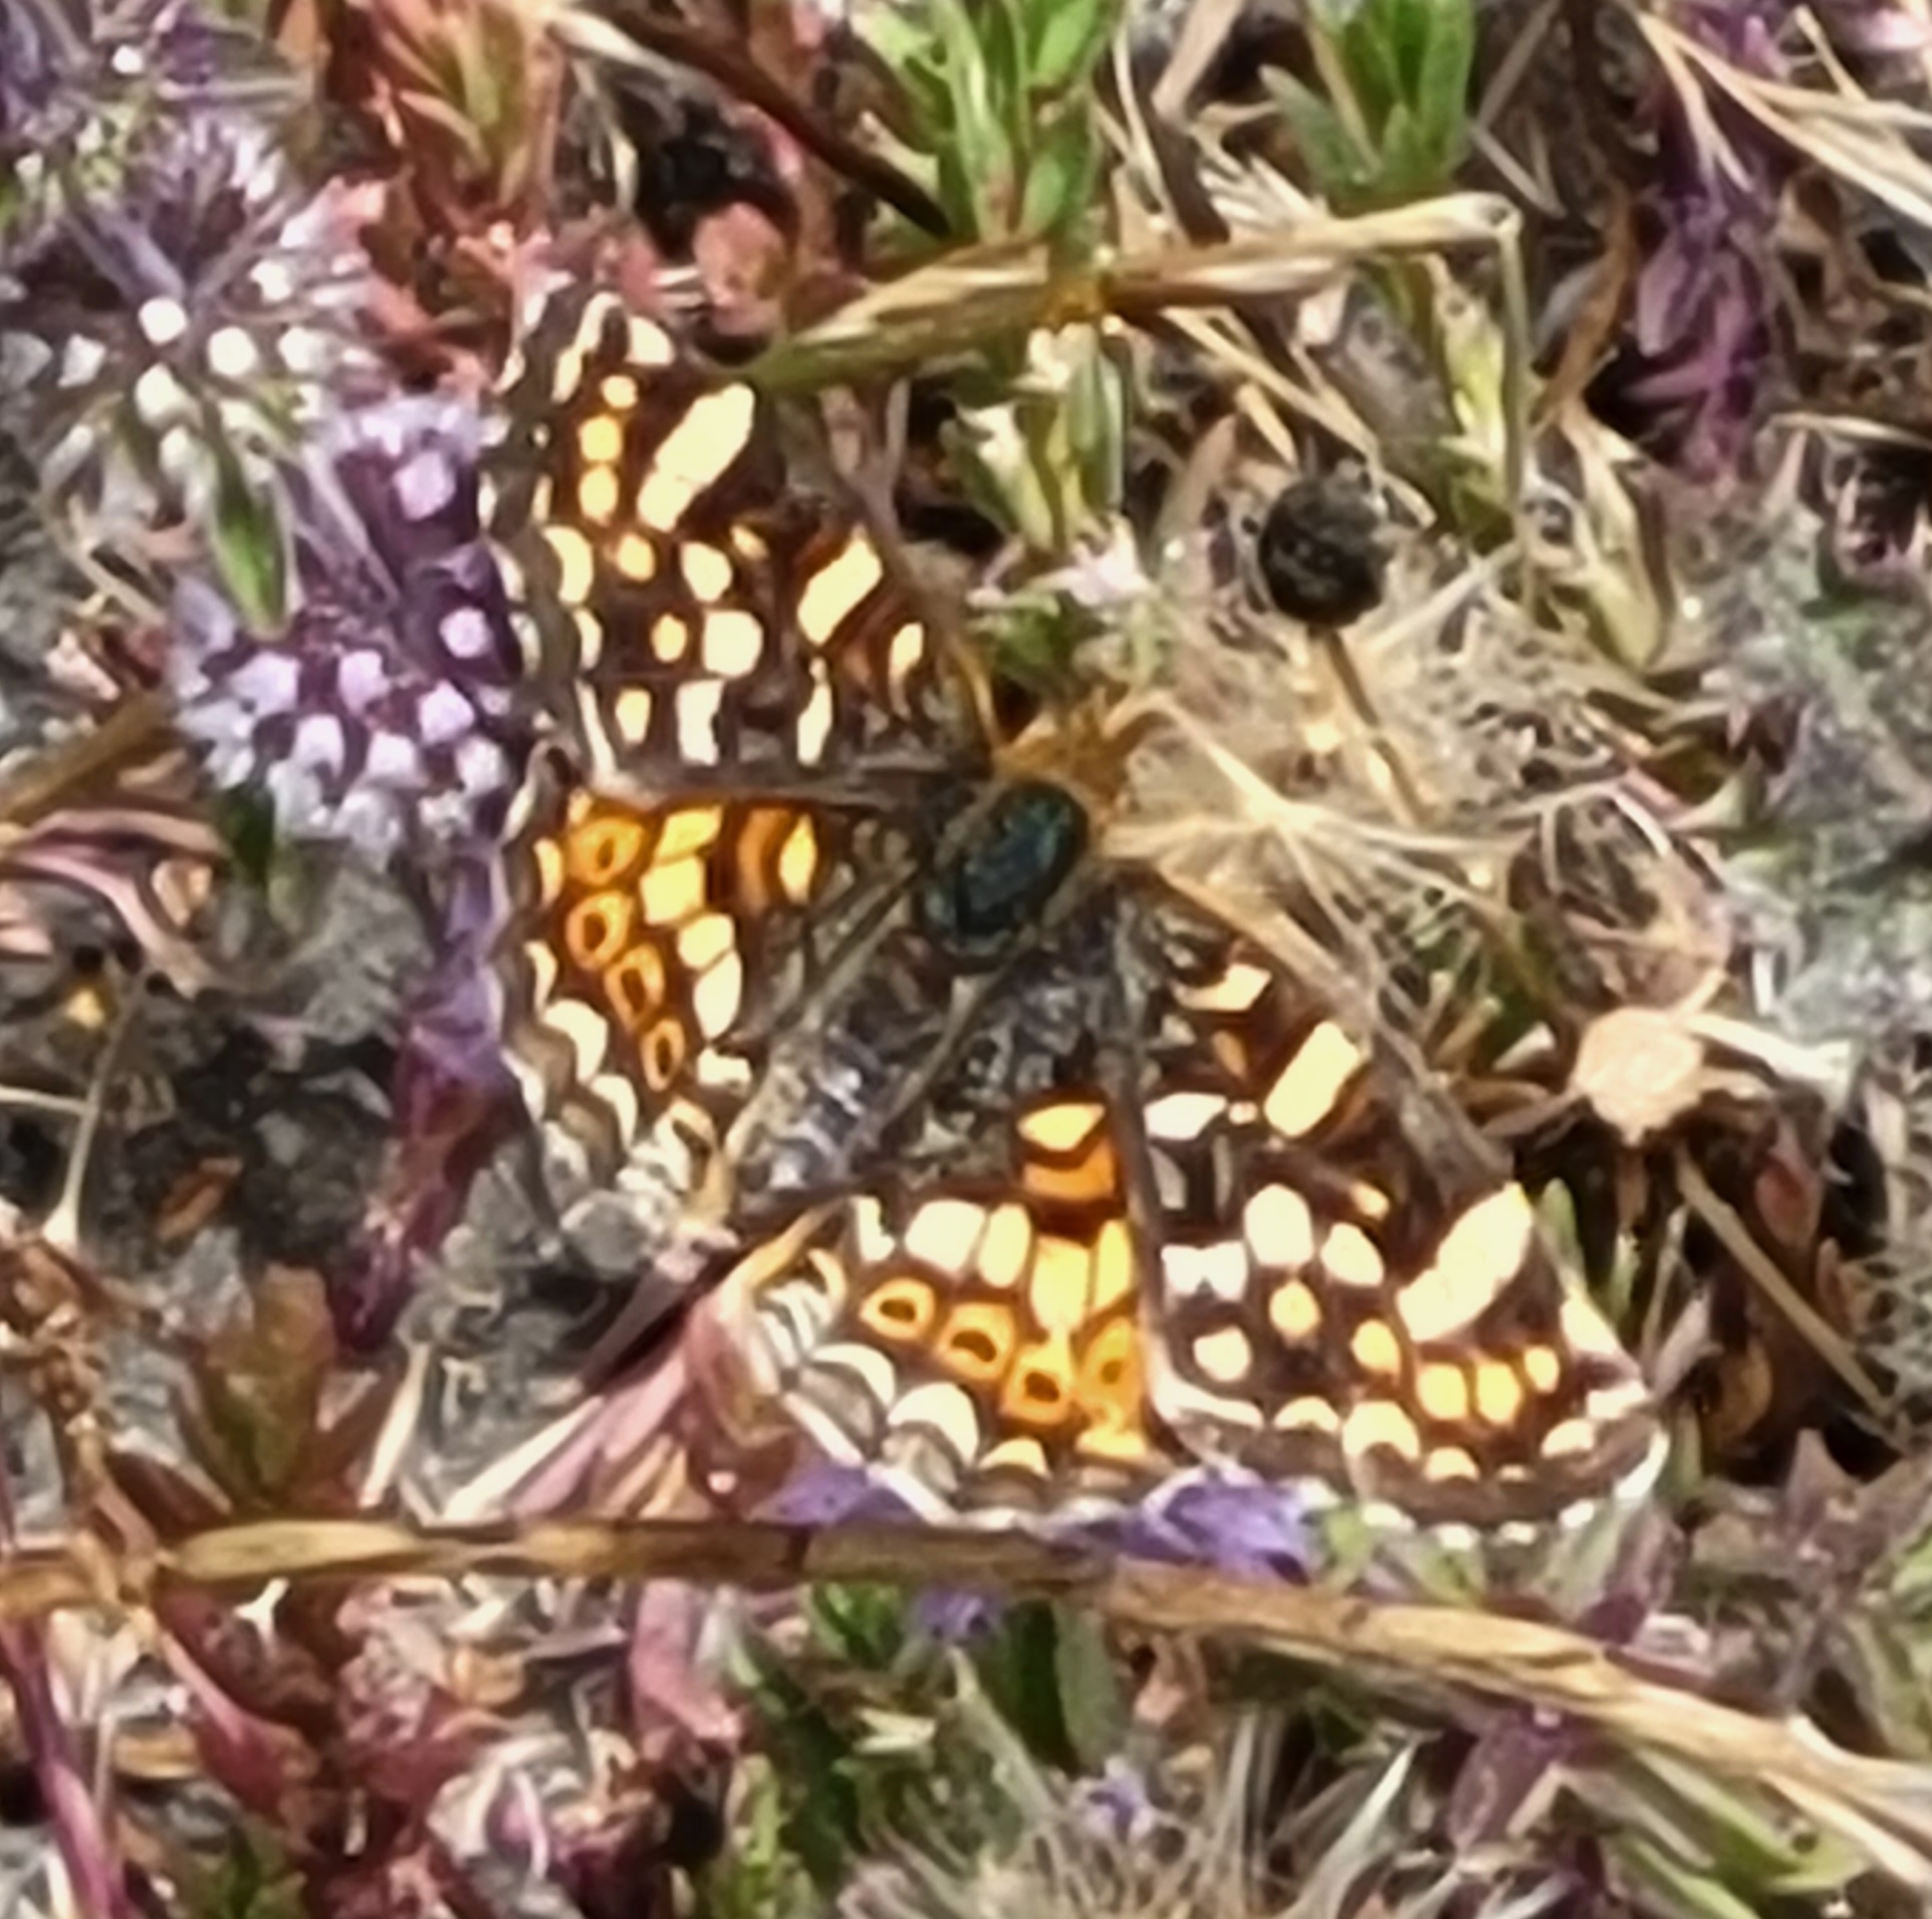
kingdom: Animalia
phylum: Arthropoda
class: Insecta
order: Lepidoptera
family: Nymphalidae
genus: Phyciodes
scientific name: Phyciodes tharos
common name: Pearl crescent
